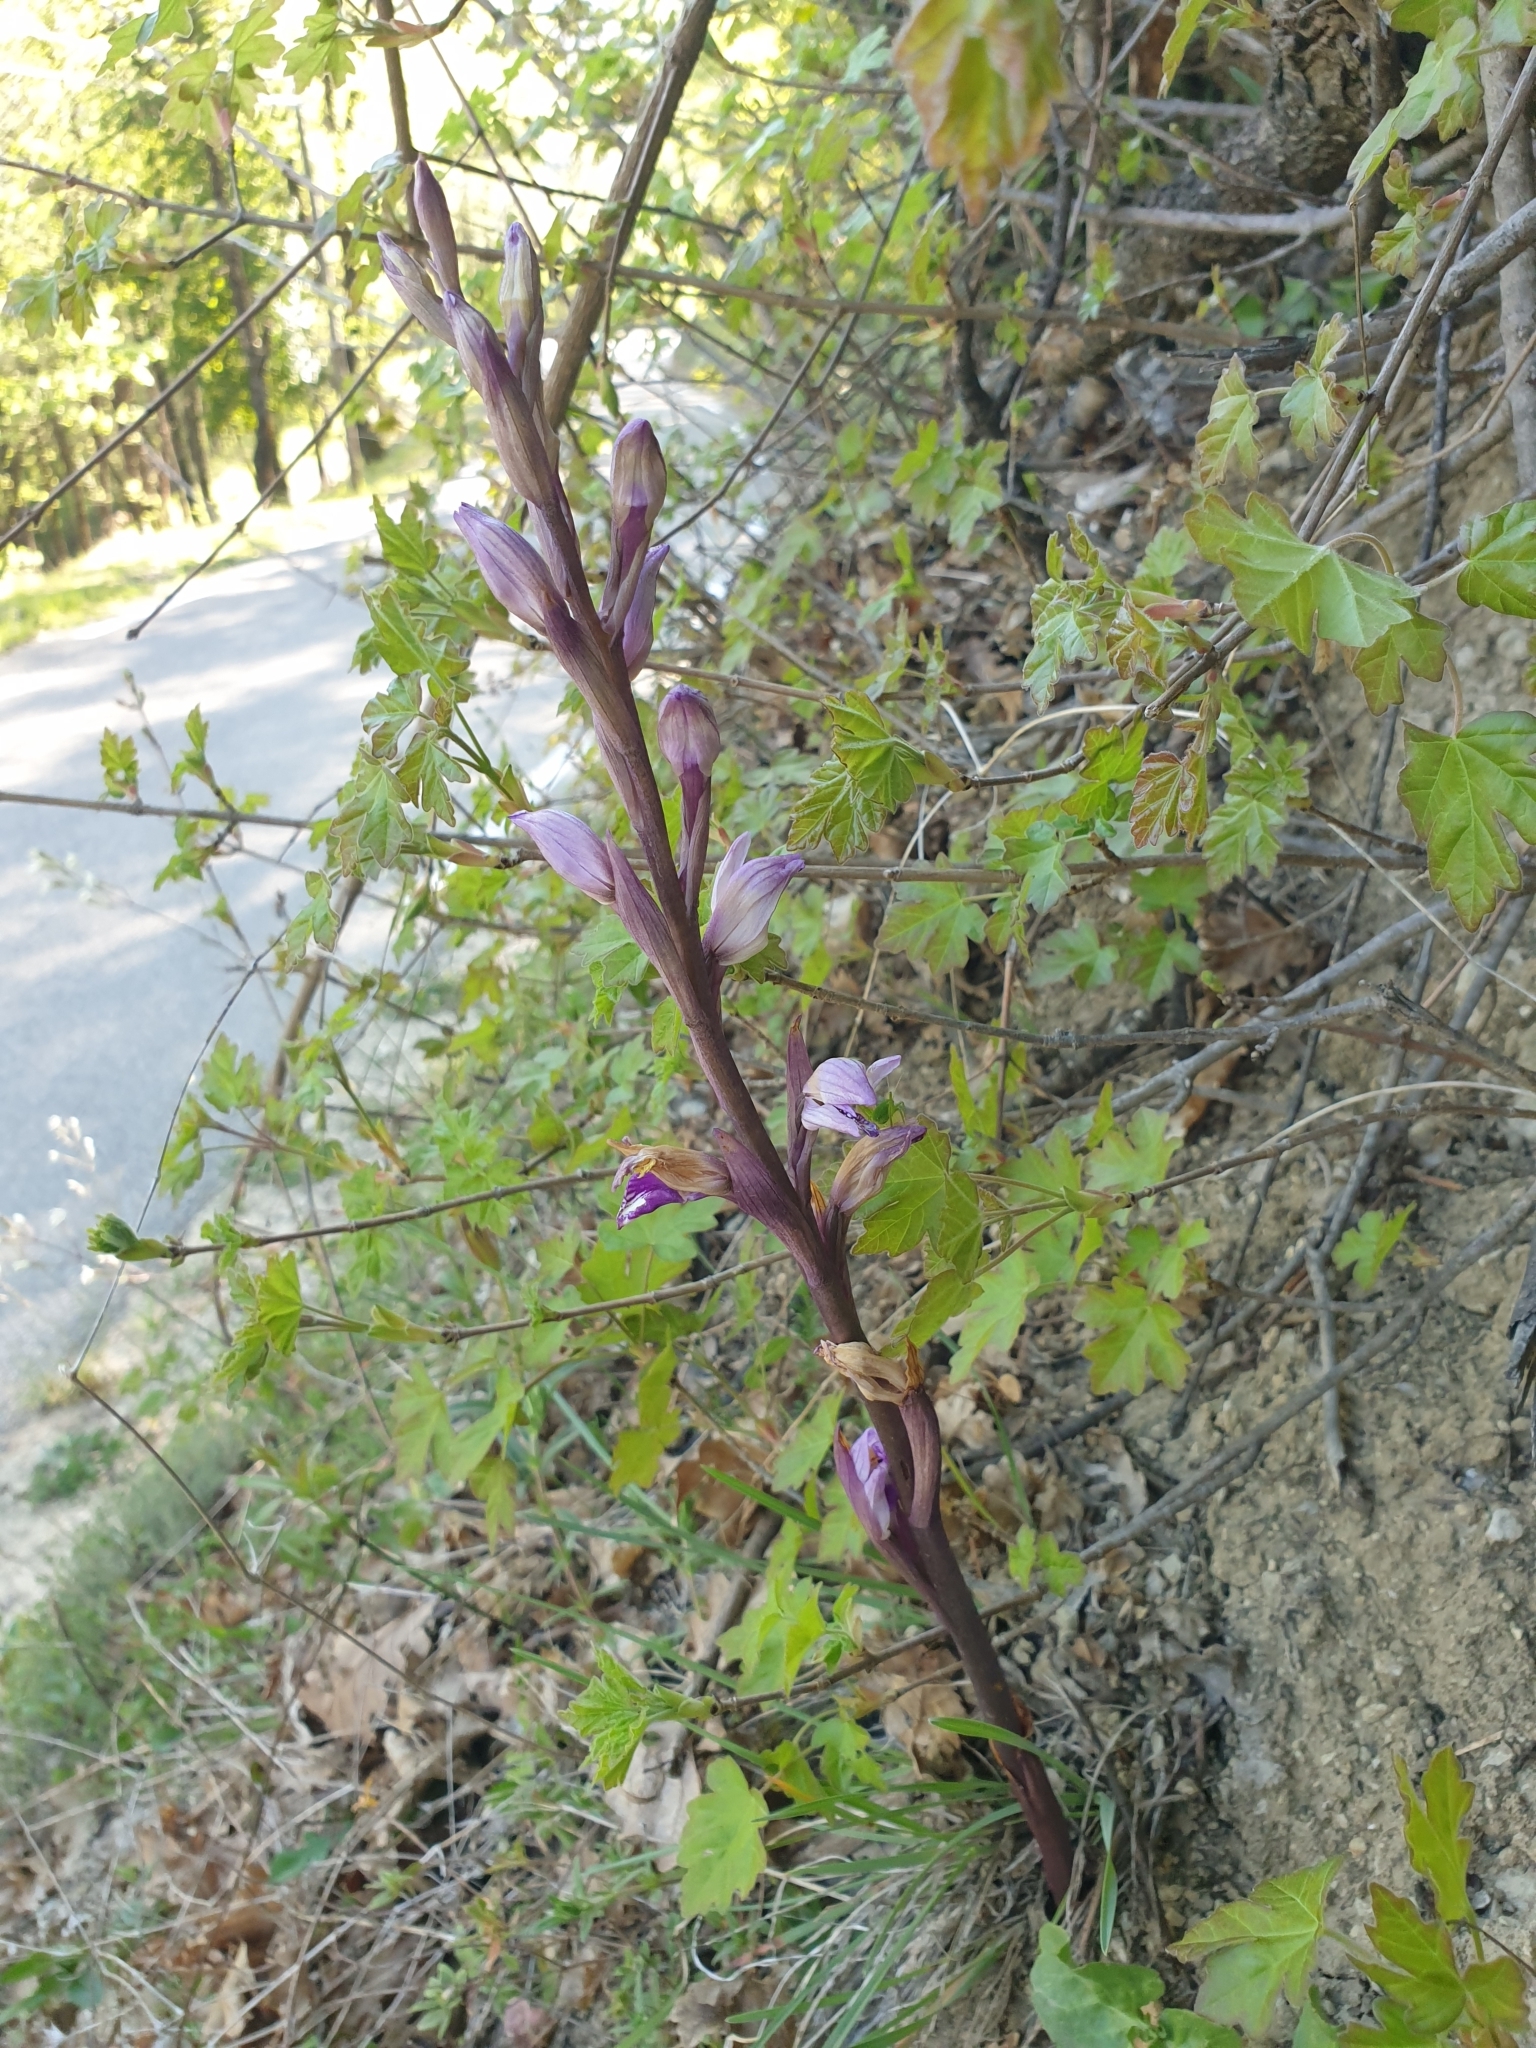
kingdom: Plantae
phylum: Tracheophyta
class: Liliopsida
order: Asparagales
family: Orchidaceae
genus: Limodorum
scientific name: Limodorum abortivum
